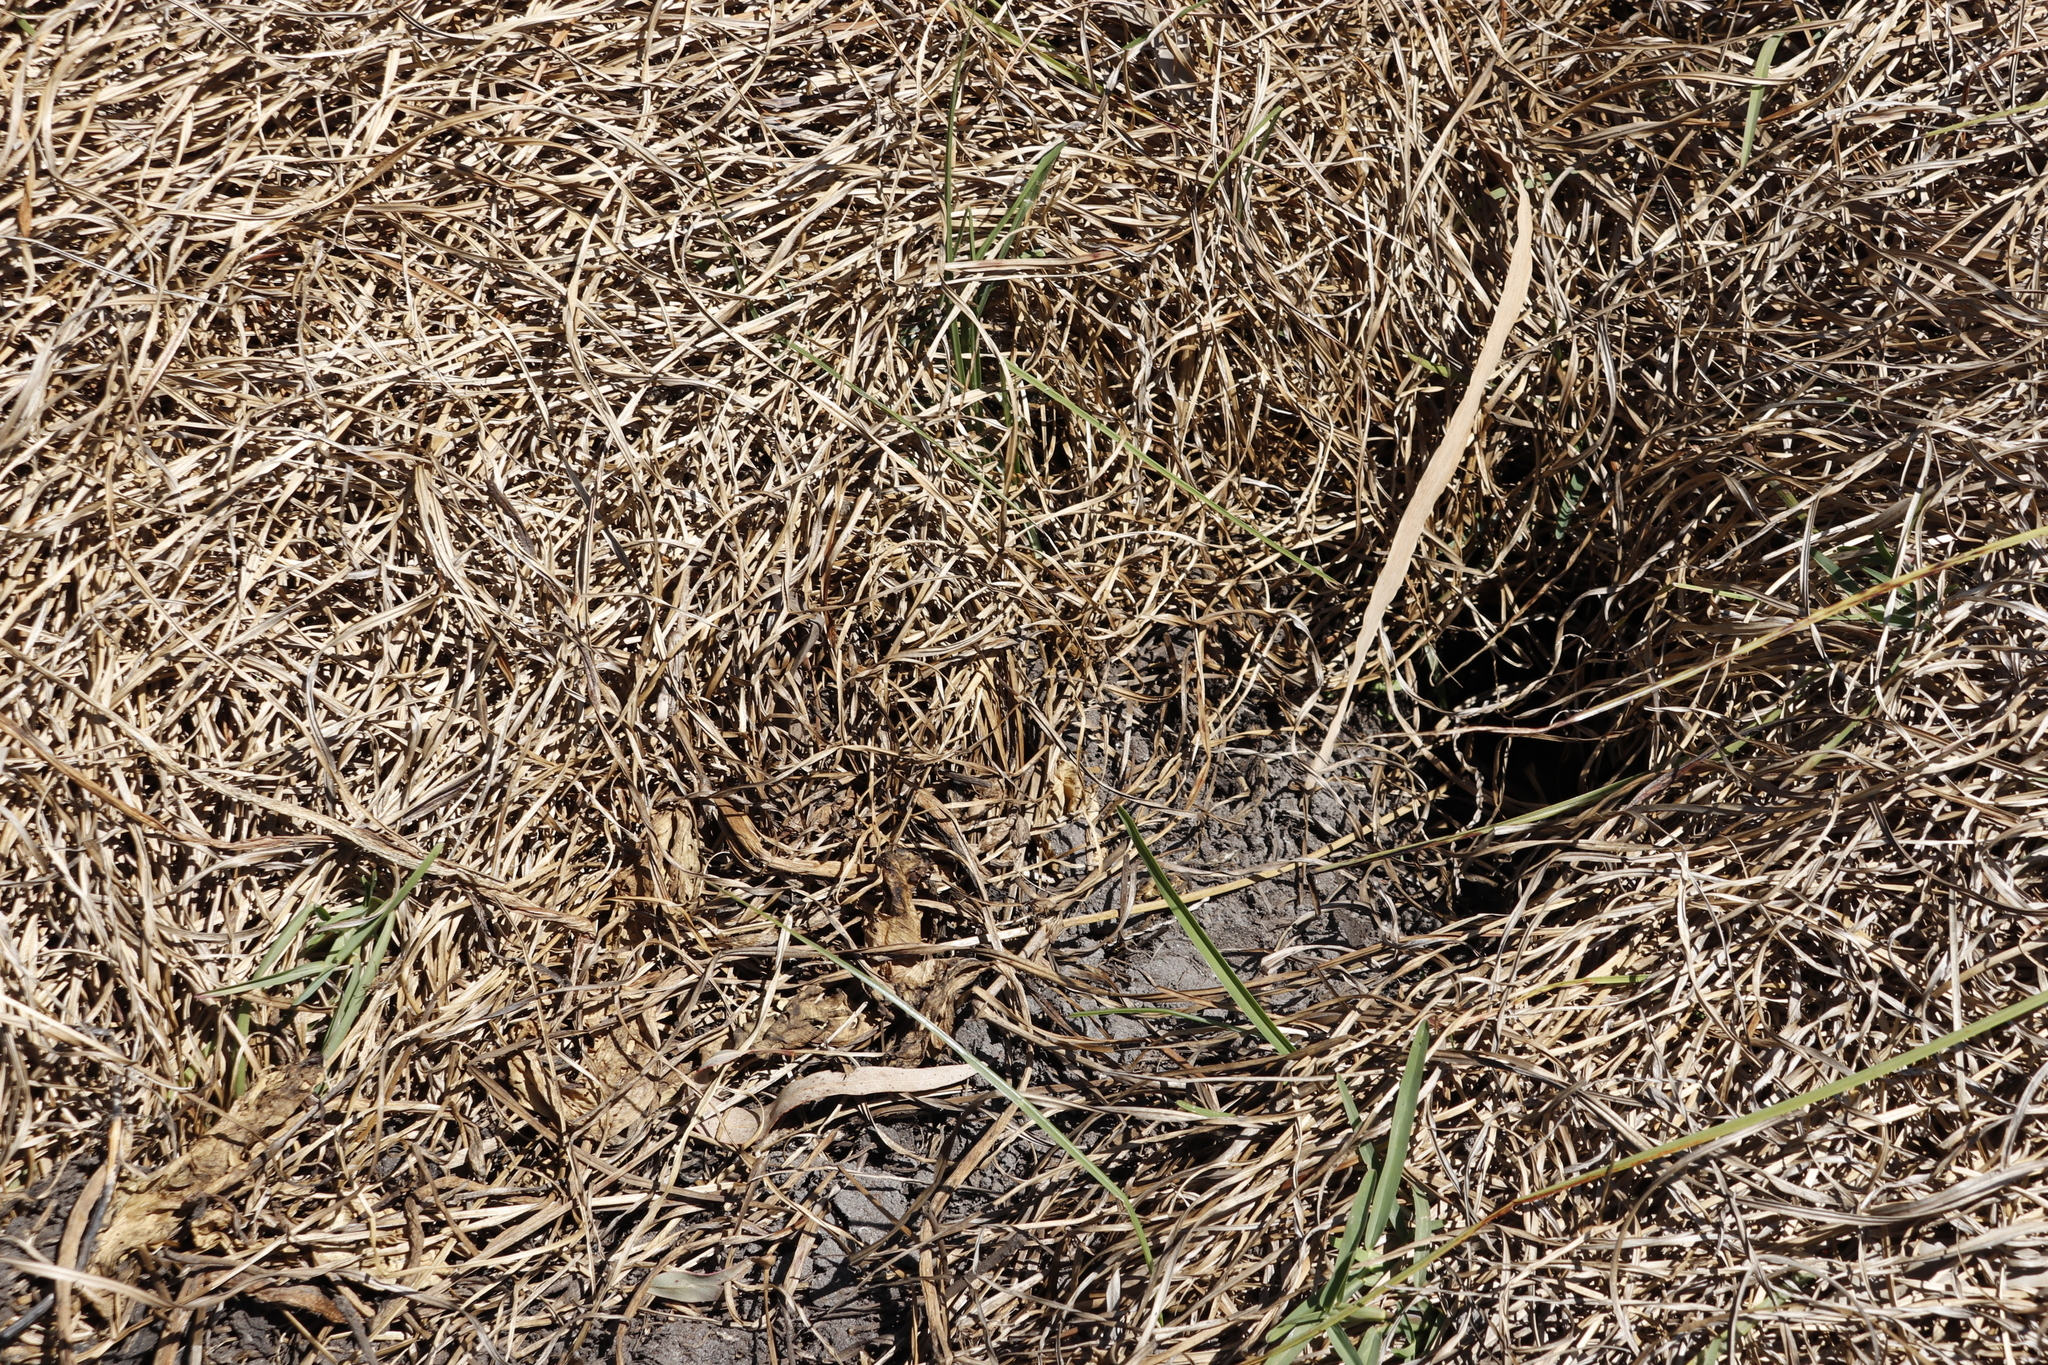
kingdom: Animalia
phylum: Chordata
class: Mammalia
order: Rodentia
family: Hystricidae
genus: Hystrix
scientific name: Hystrix africaeaustralis
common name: Cape porcupine
